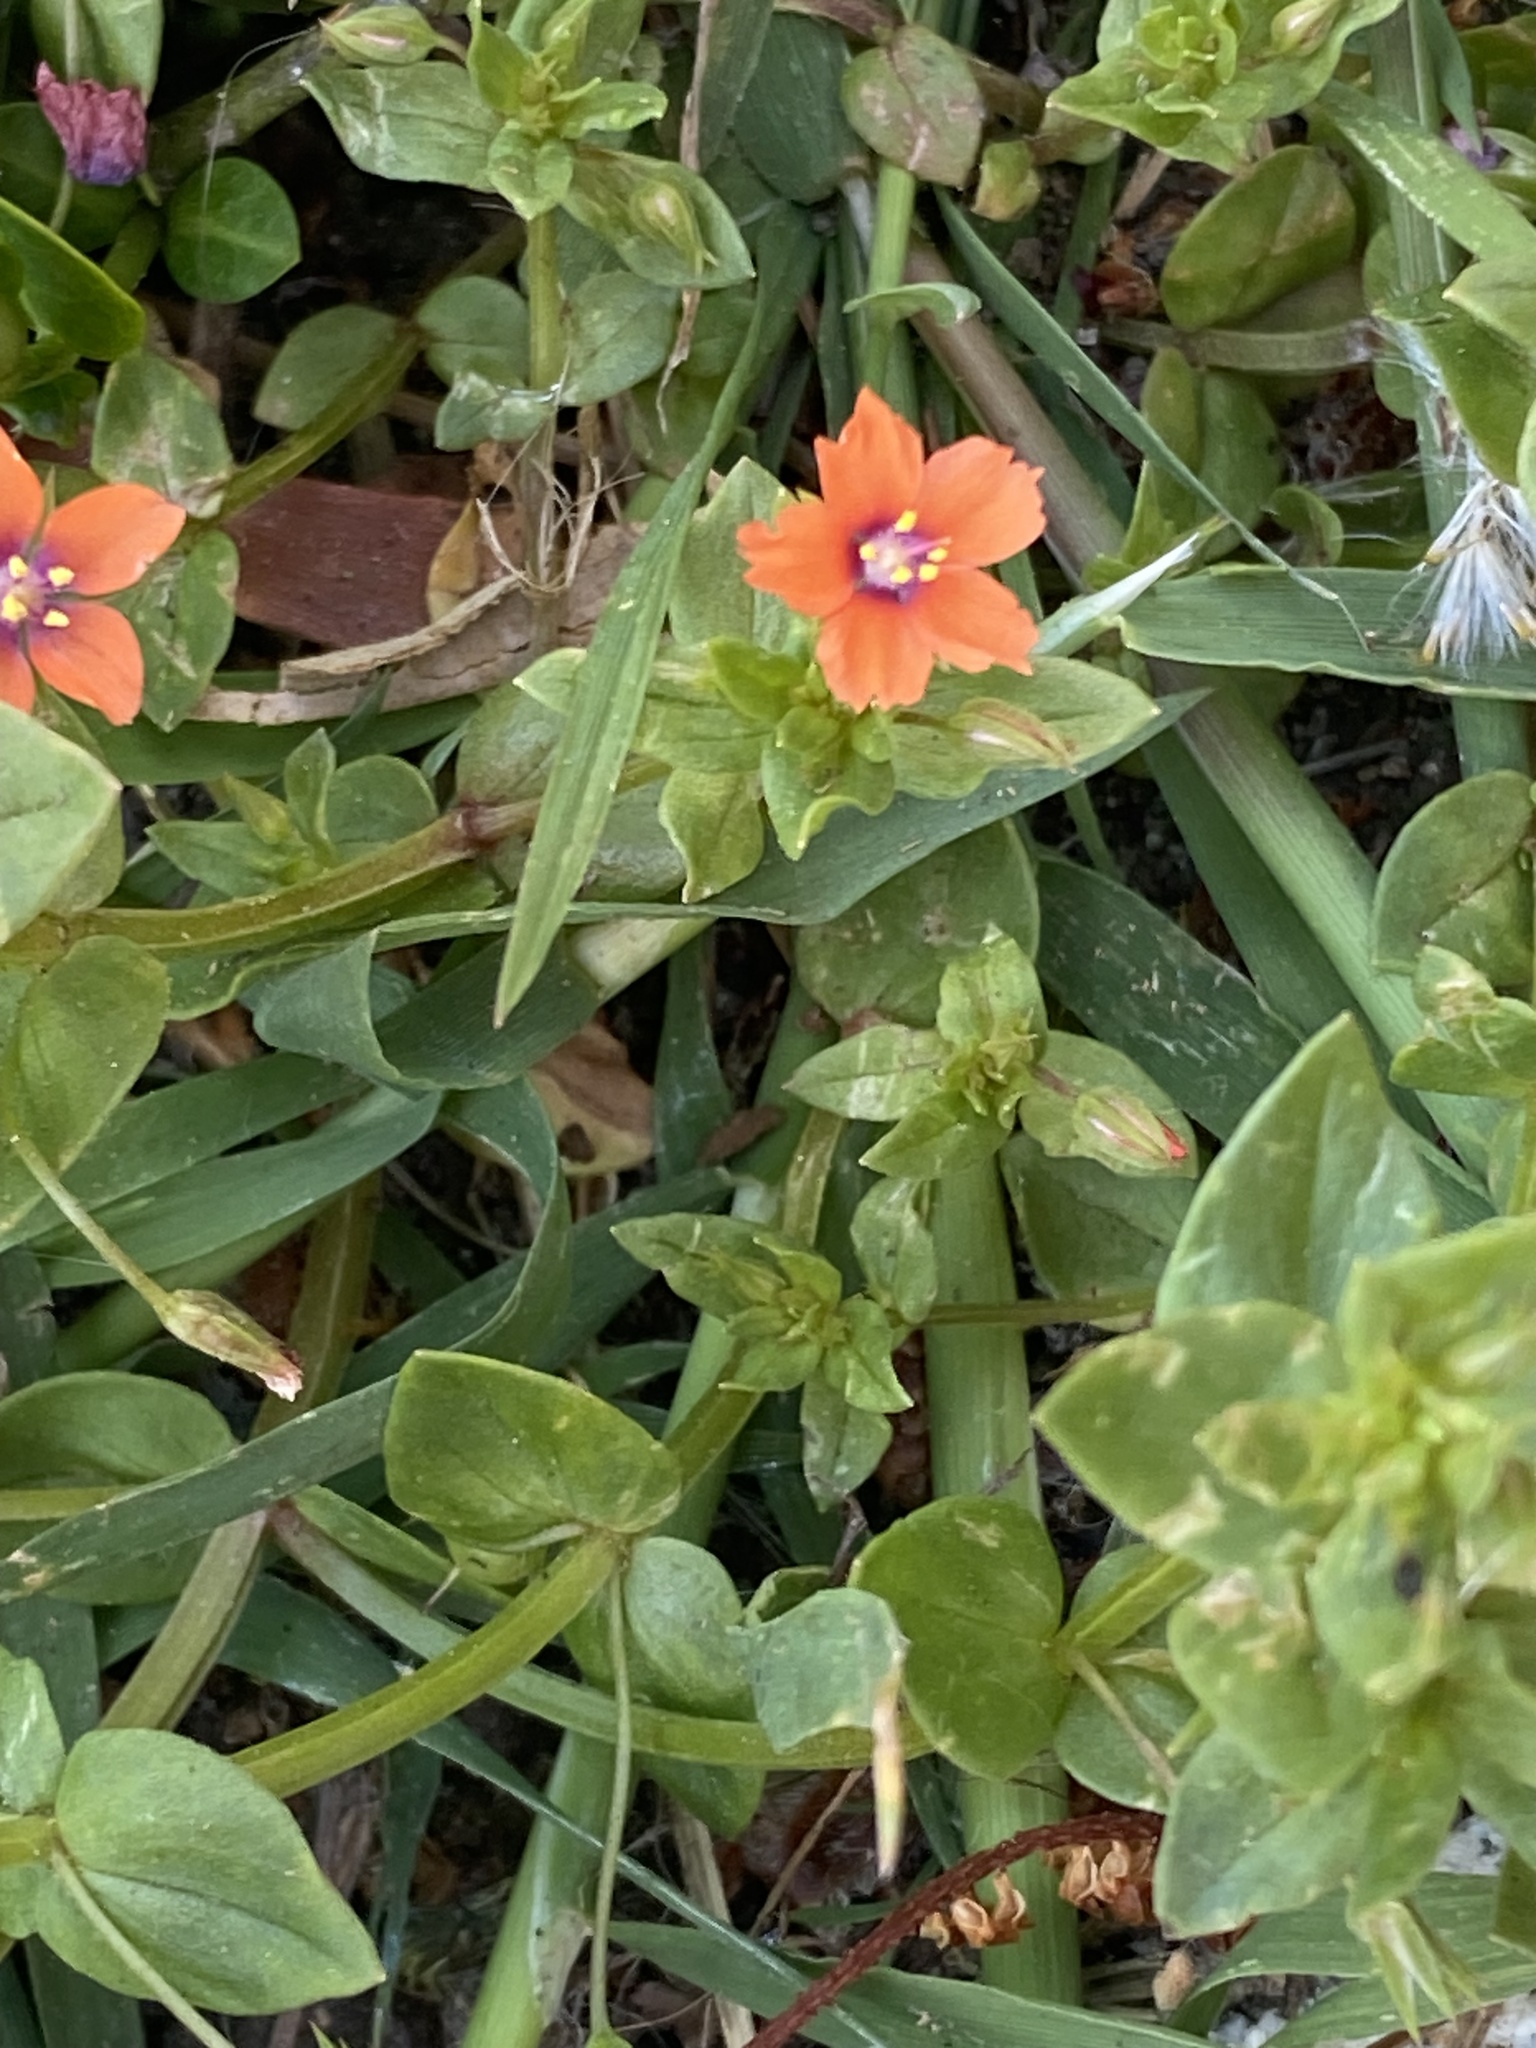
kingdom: Plantae
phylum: Tracheophyta
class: Magnoliopsida
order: Ericales
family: Primulaceae
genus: Lysimachia
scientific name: Lysimachia arvensis
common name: Scarlet pimpernel
